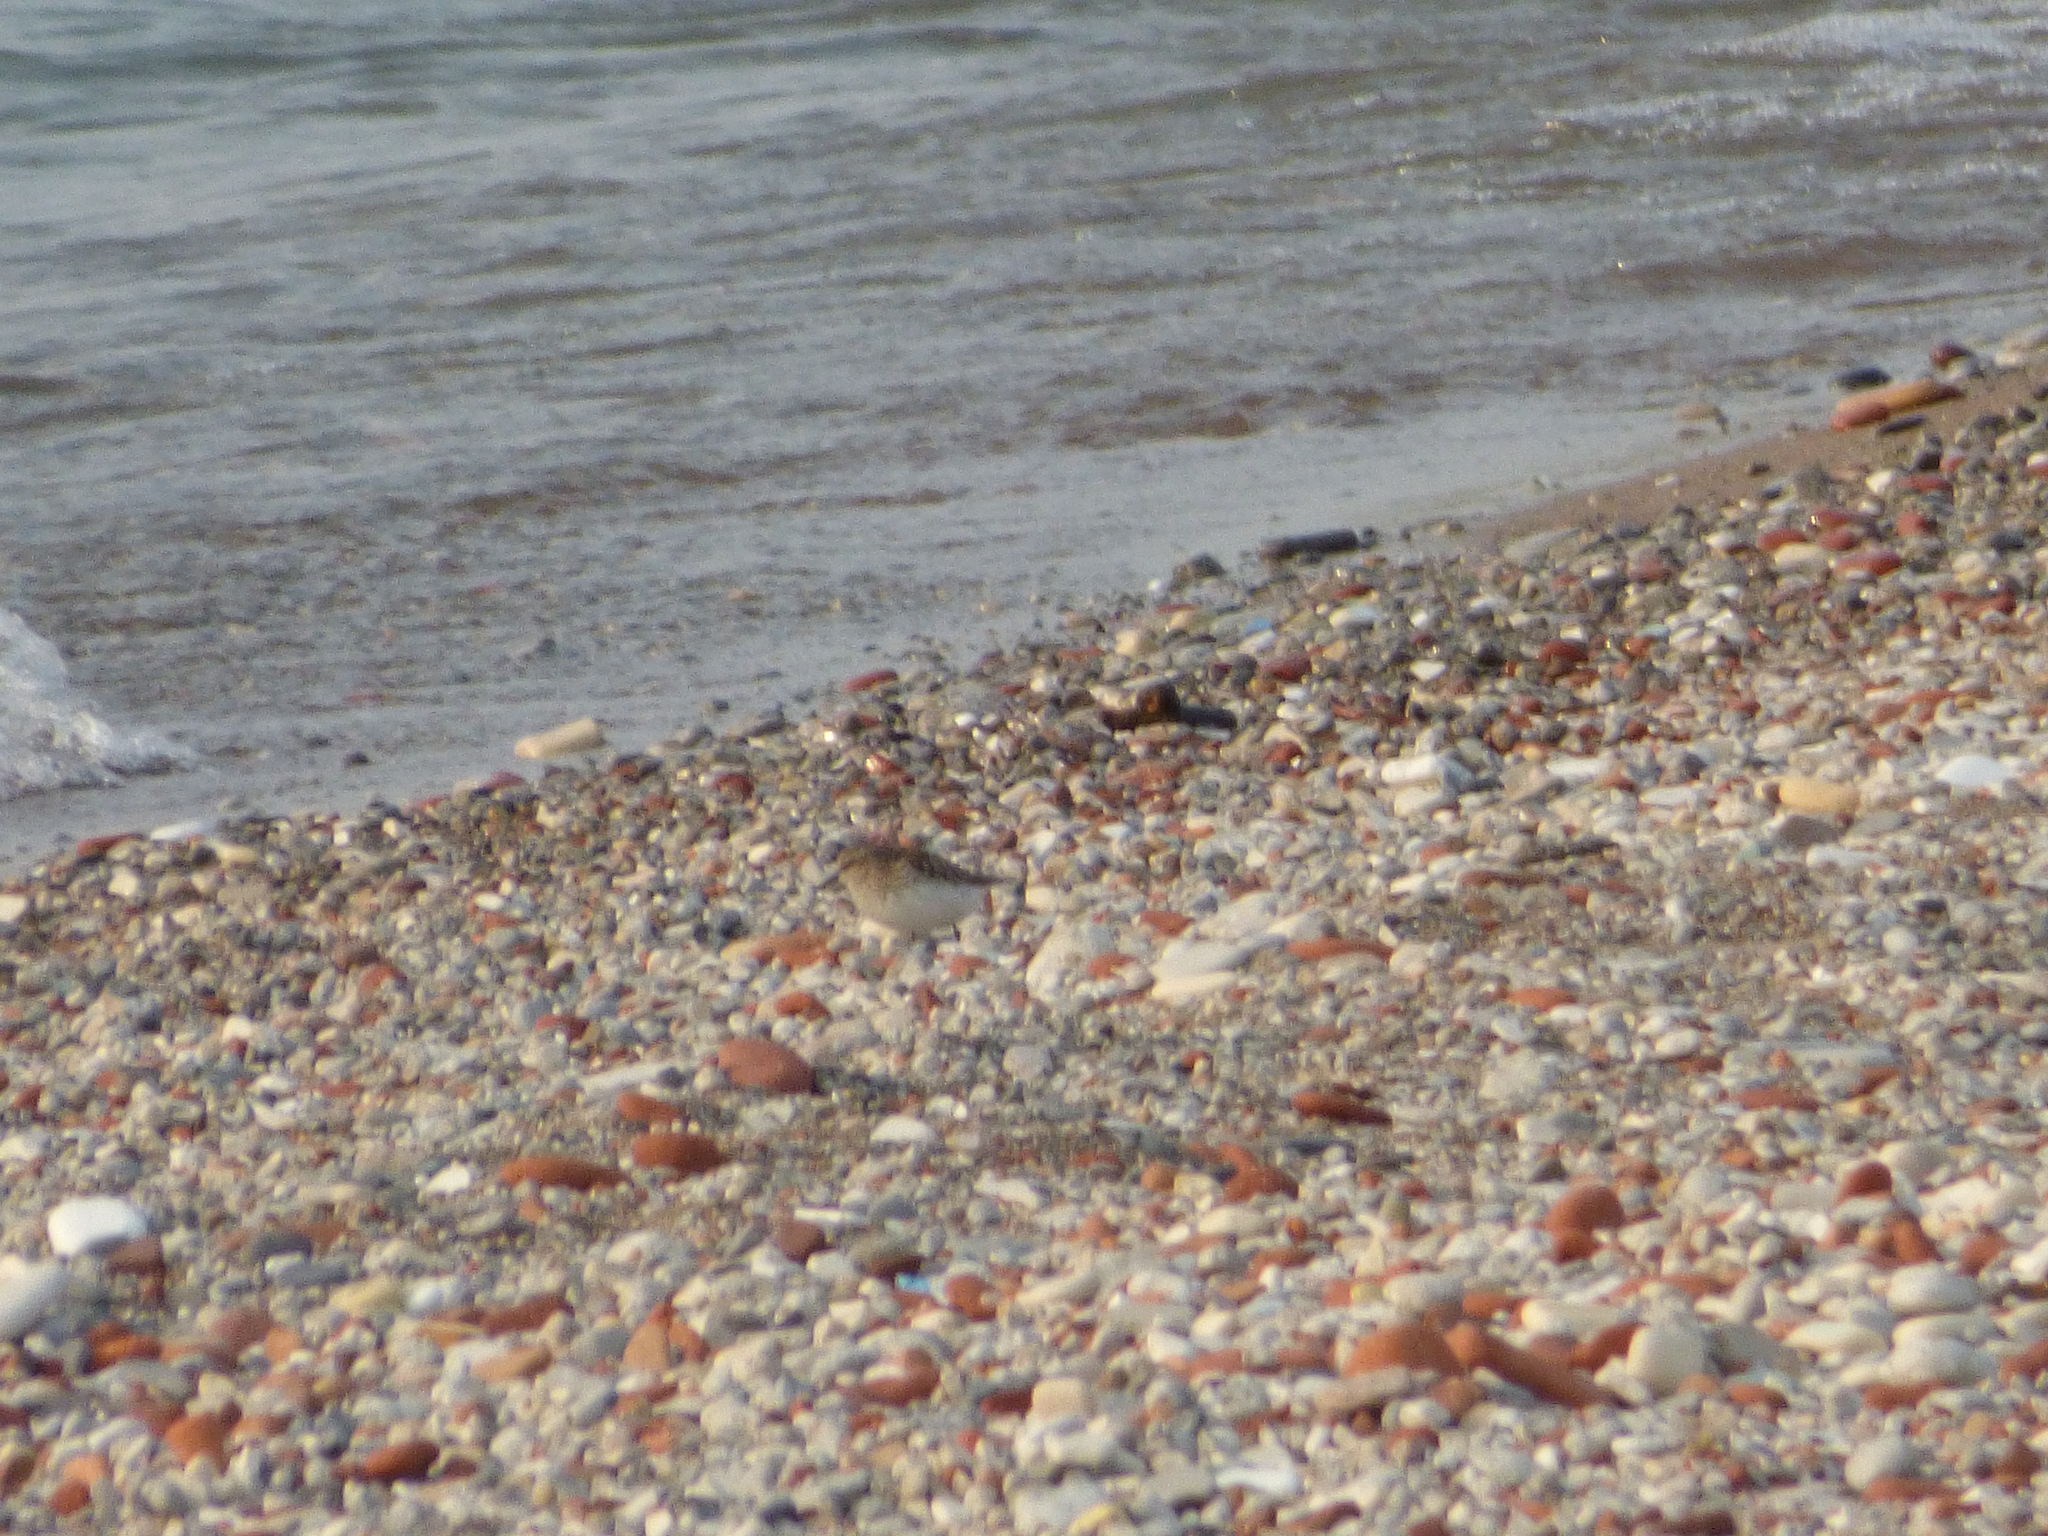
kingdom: Animalia
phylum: Chordata
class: Aves
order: Charadriiformes
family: Scolopacidae
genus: Calidris
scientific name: Calidris minutilla
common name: Least sandpiper
